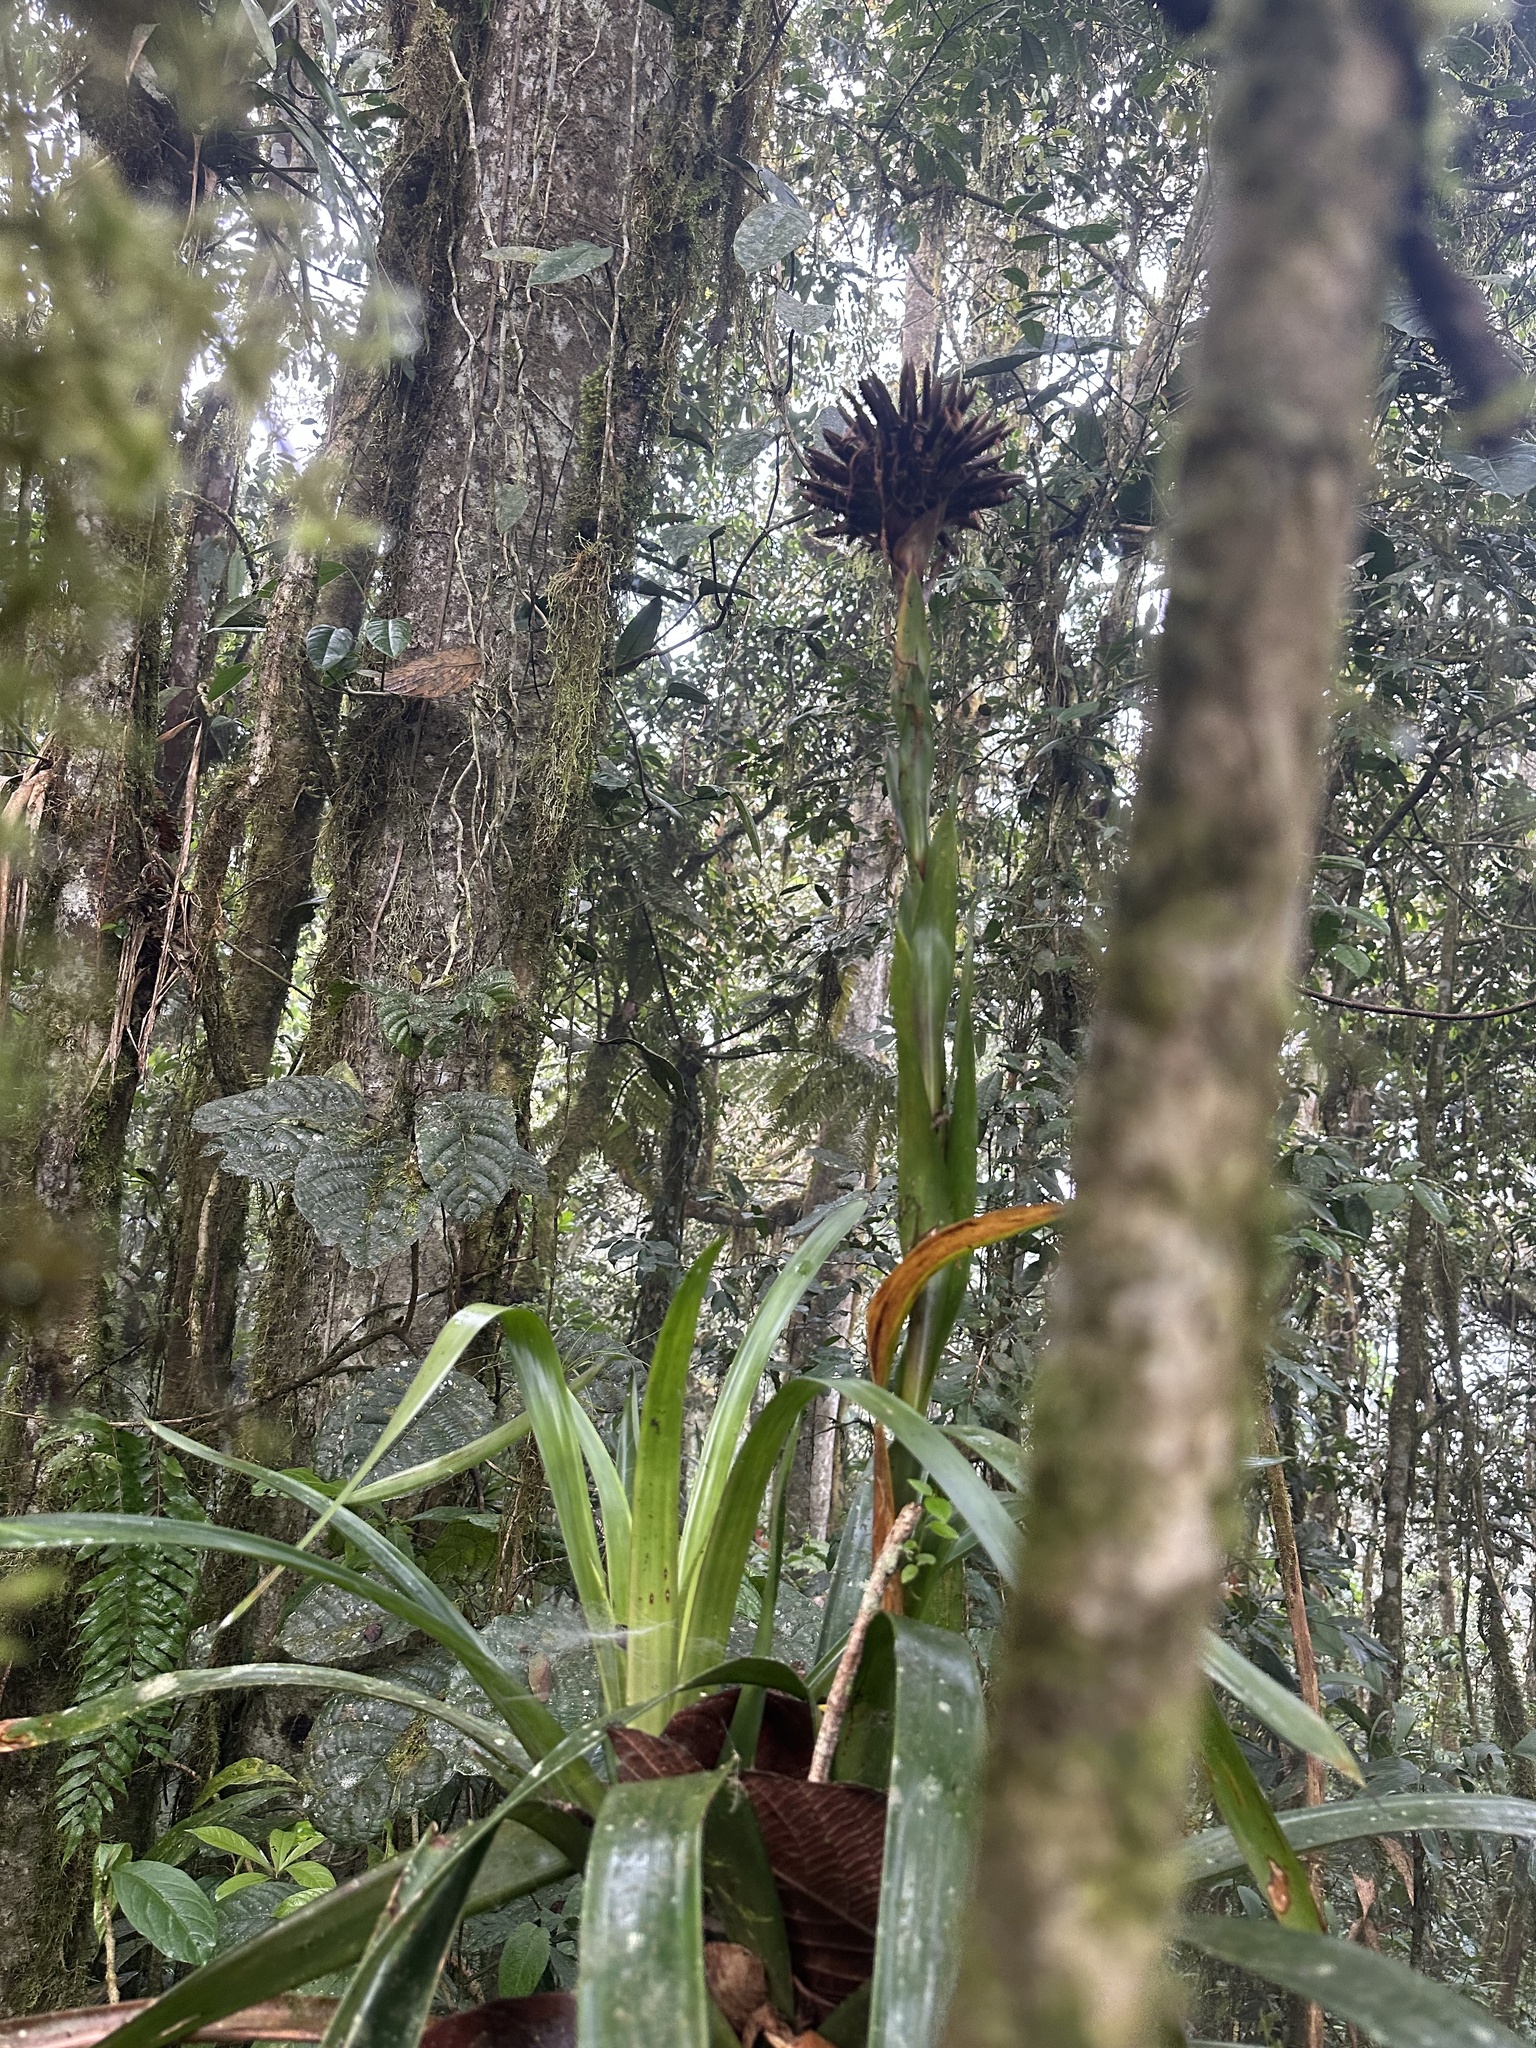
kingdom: Plantae
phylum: Tracheophyta
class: Liliopsida
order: Poales
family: Bromeliaceae
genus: Guzmania
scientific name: Guzmania triangularis
